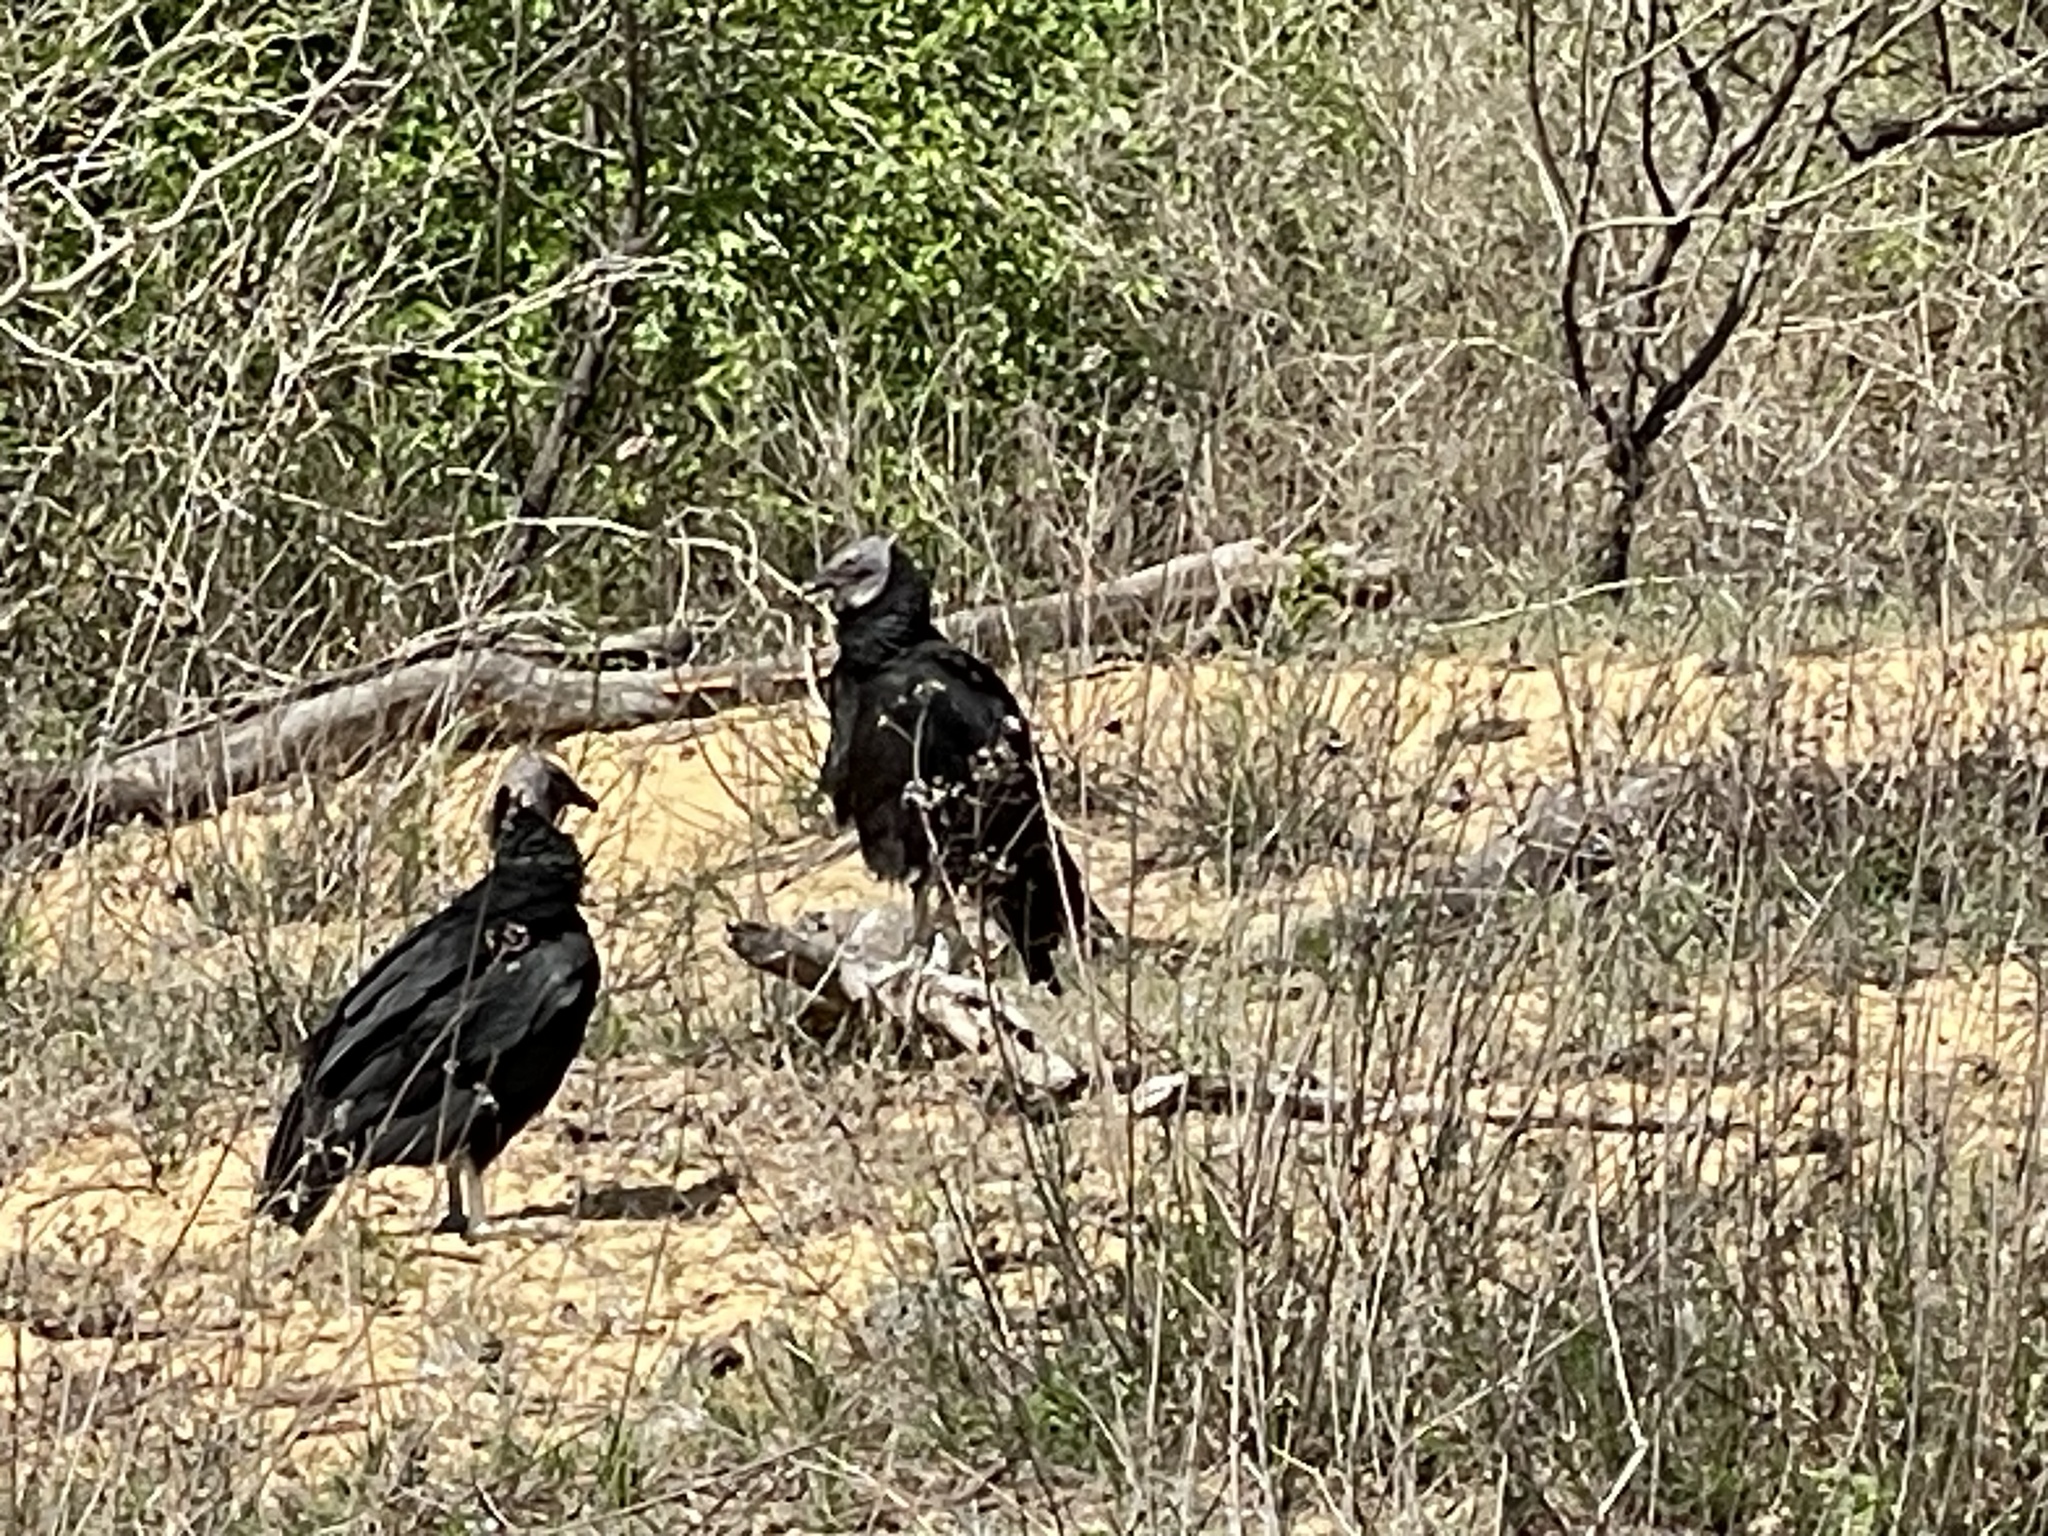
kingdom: Animalia
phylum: Chordata
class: Aves
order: Accipitriformes
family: Cathartidae
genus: Coragyps
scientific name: Coragyps atratus
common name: Black vulture
